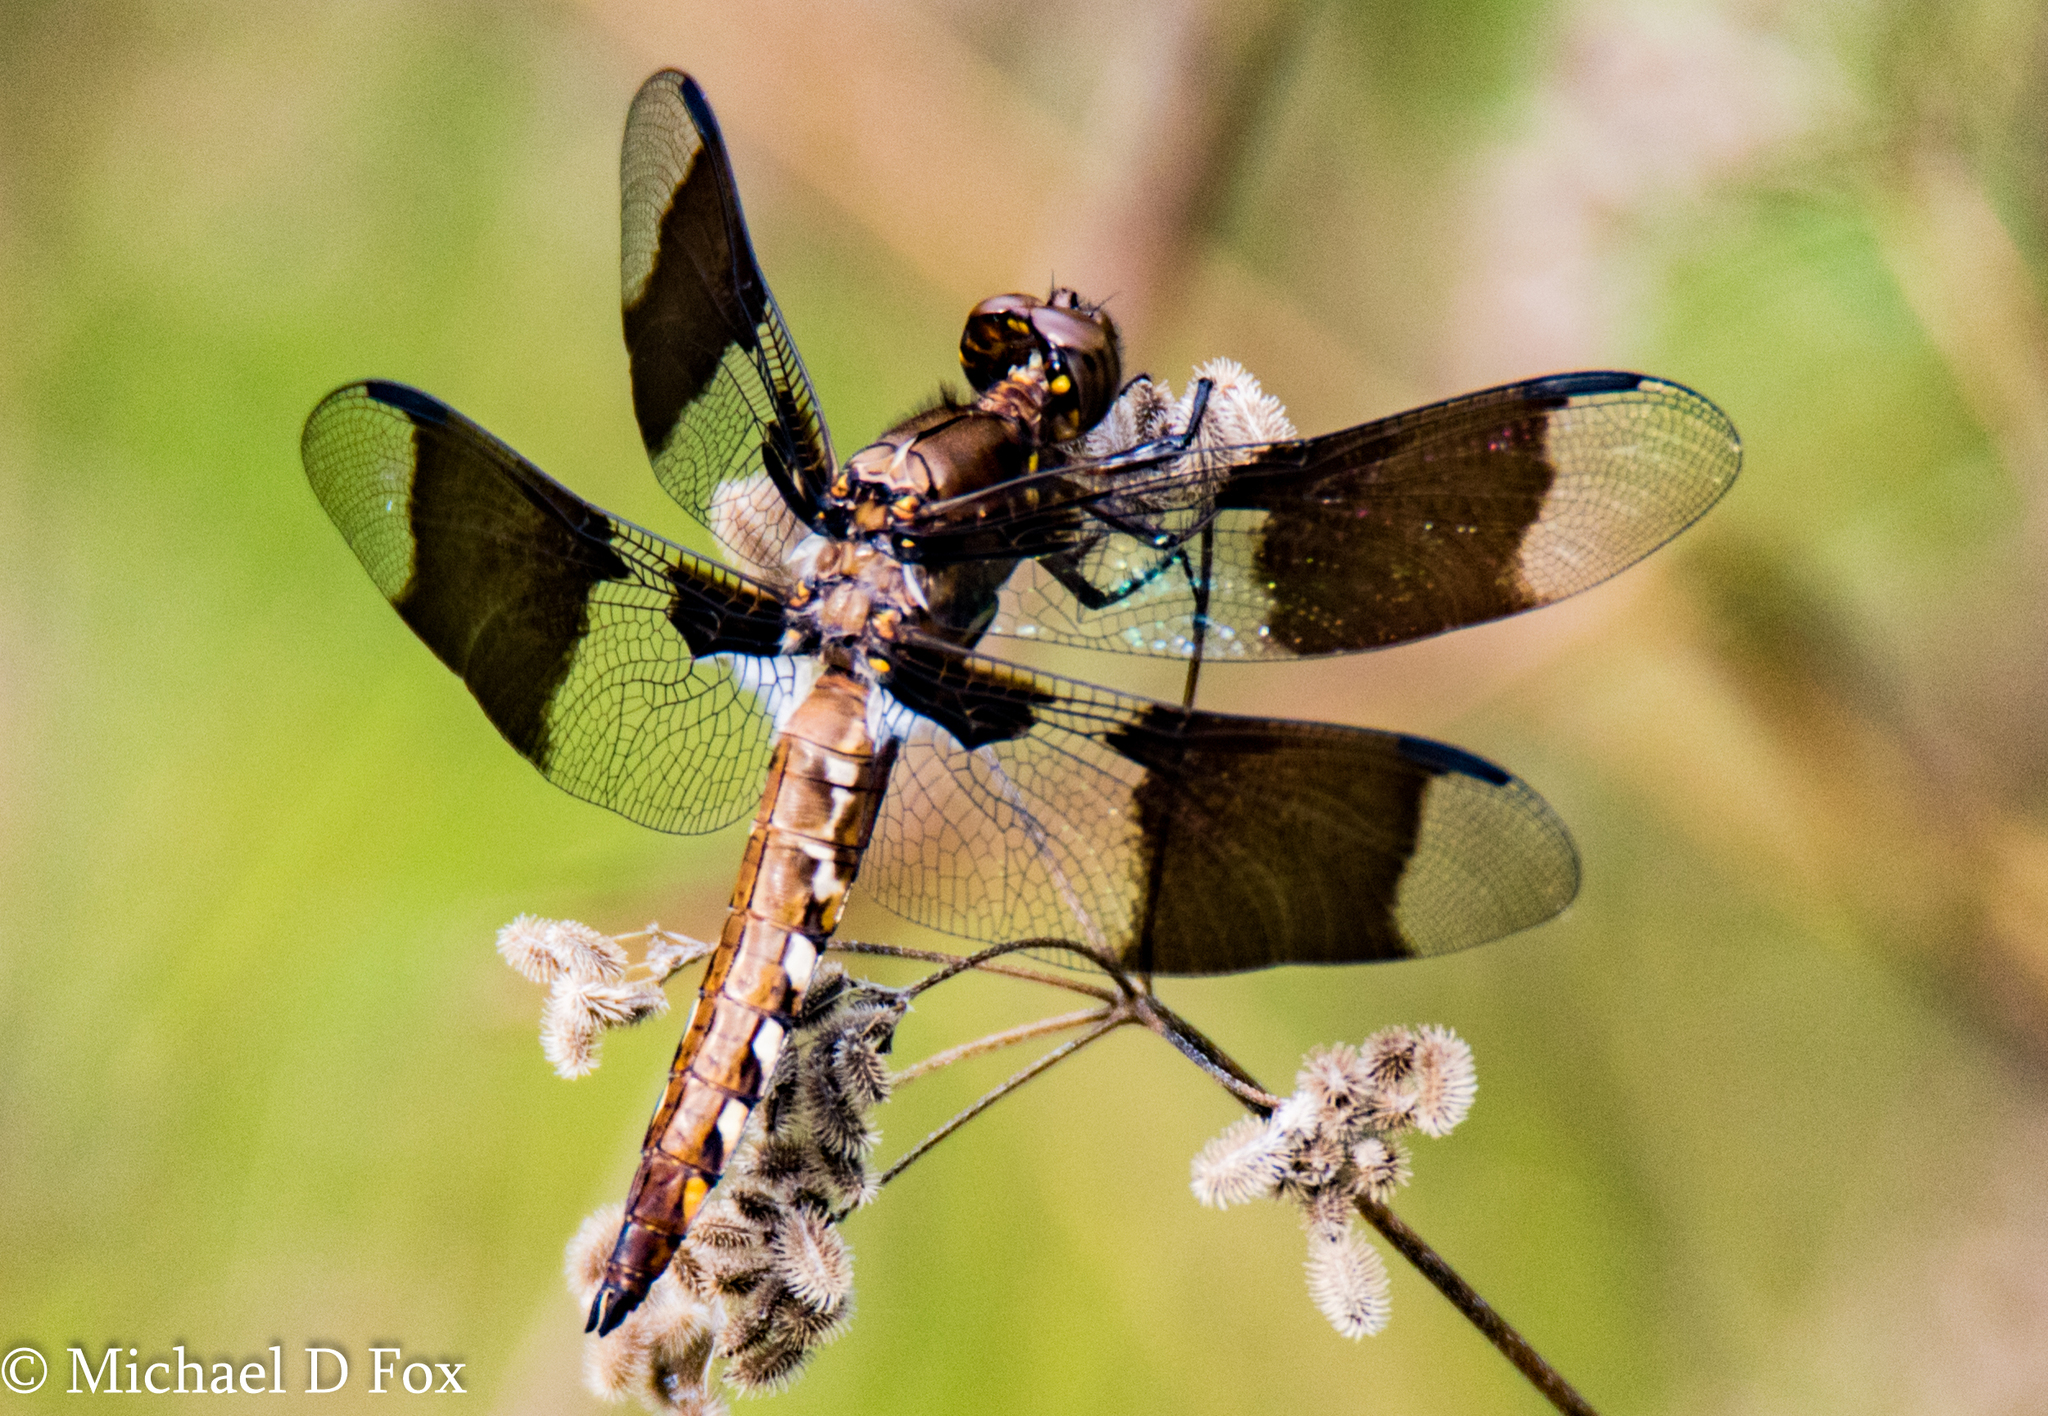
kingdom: Animalia
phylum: Arthropoda
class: Insecta
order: Odonata
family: Libellulidae
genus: Plathemis
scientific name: Plathemis lydia
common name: Common whitetail
